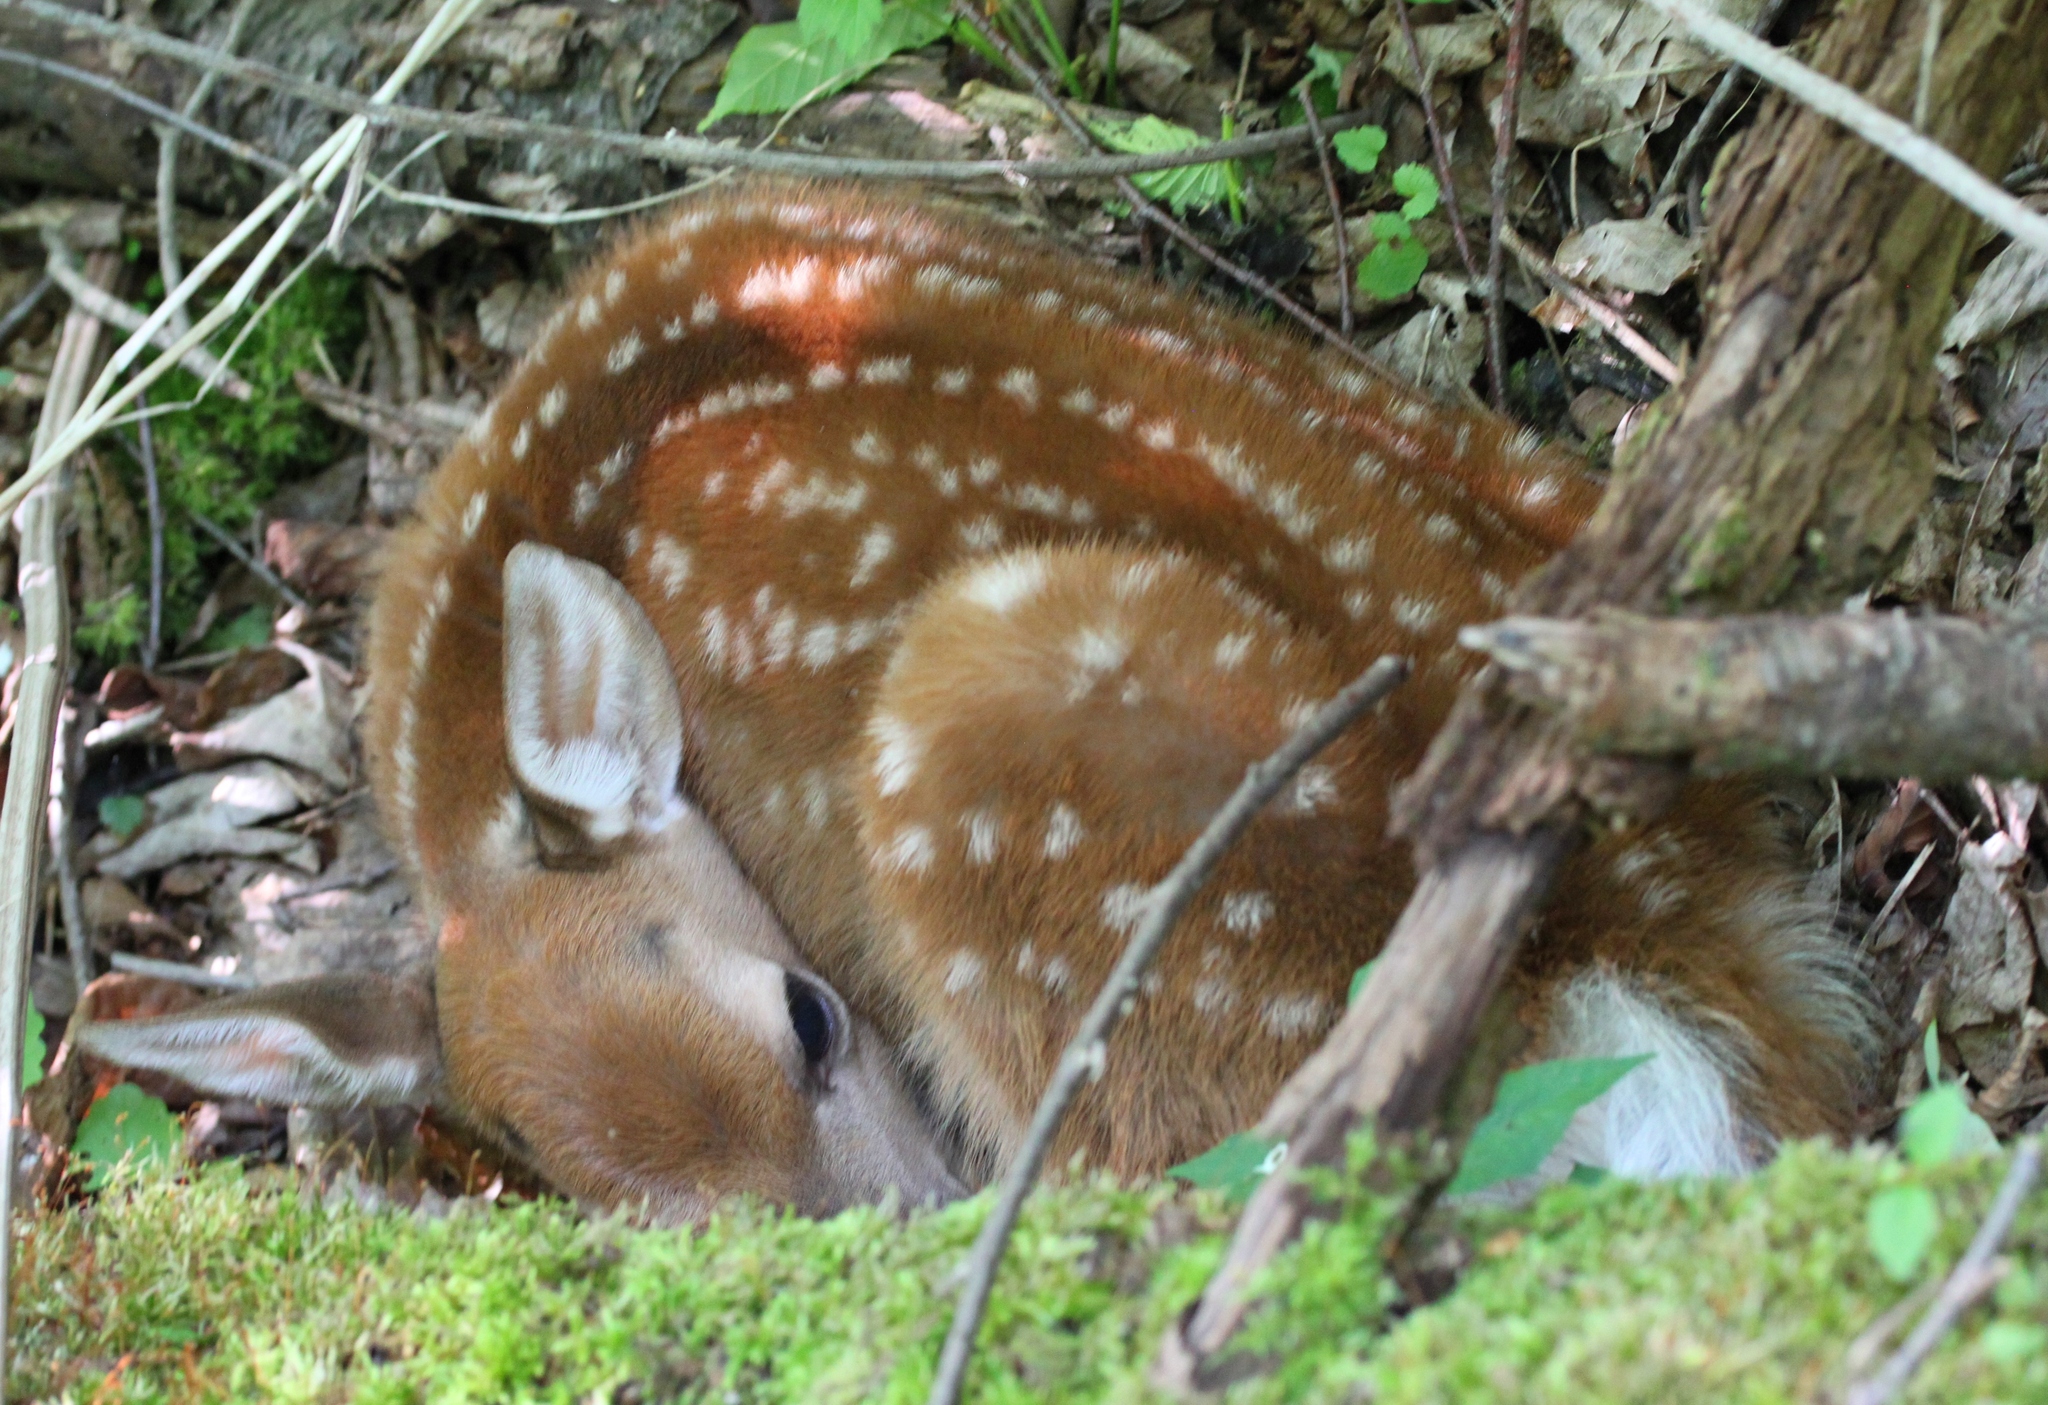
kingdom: Animalia
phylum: Chordata
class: Mammalia
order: Artiodactyla
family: Cervidae
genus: Odocoileus
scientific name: Odocoileus virginianus
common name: White-tailed deer
